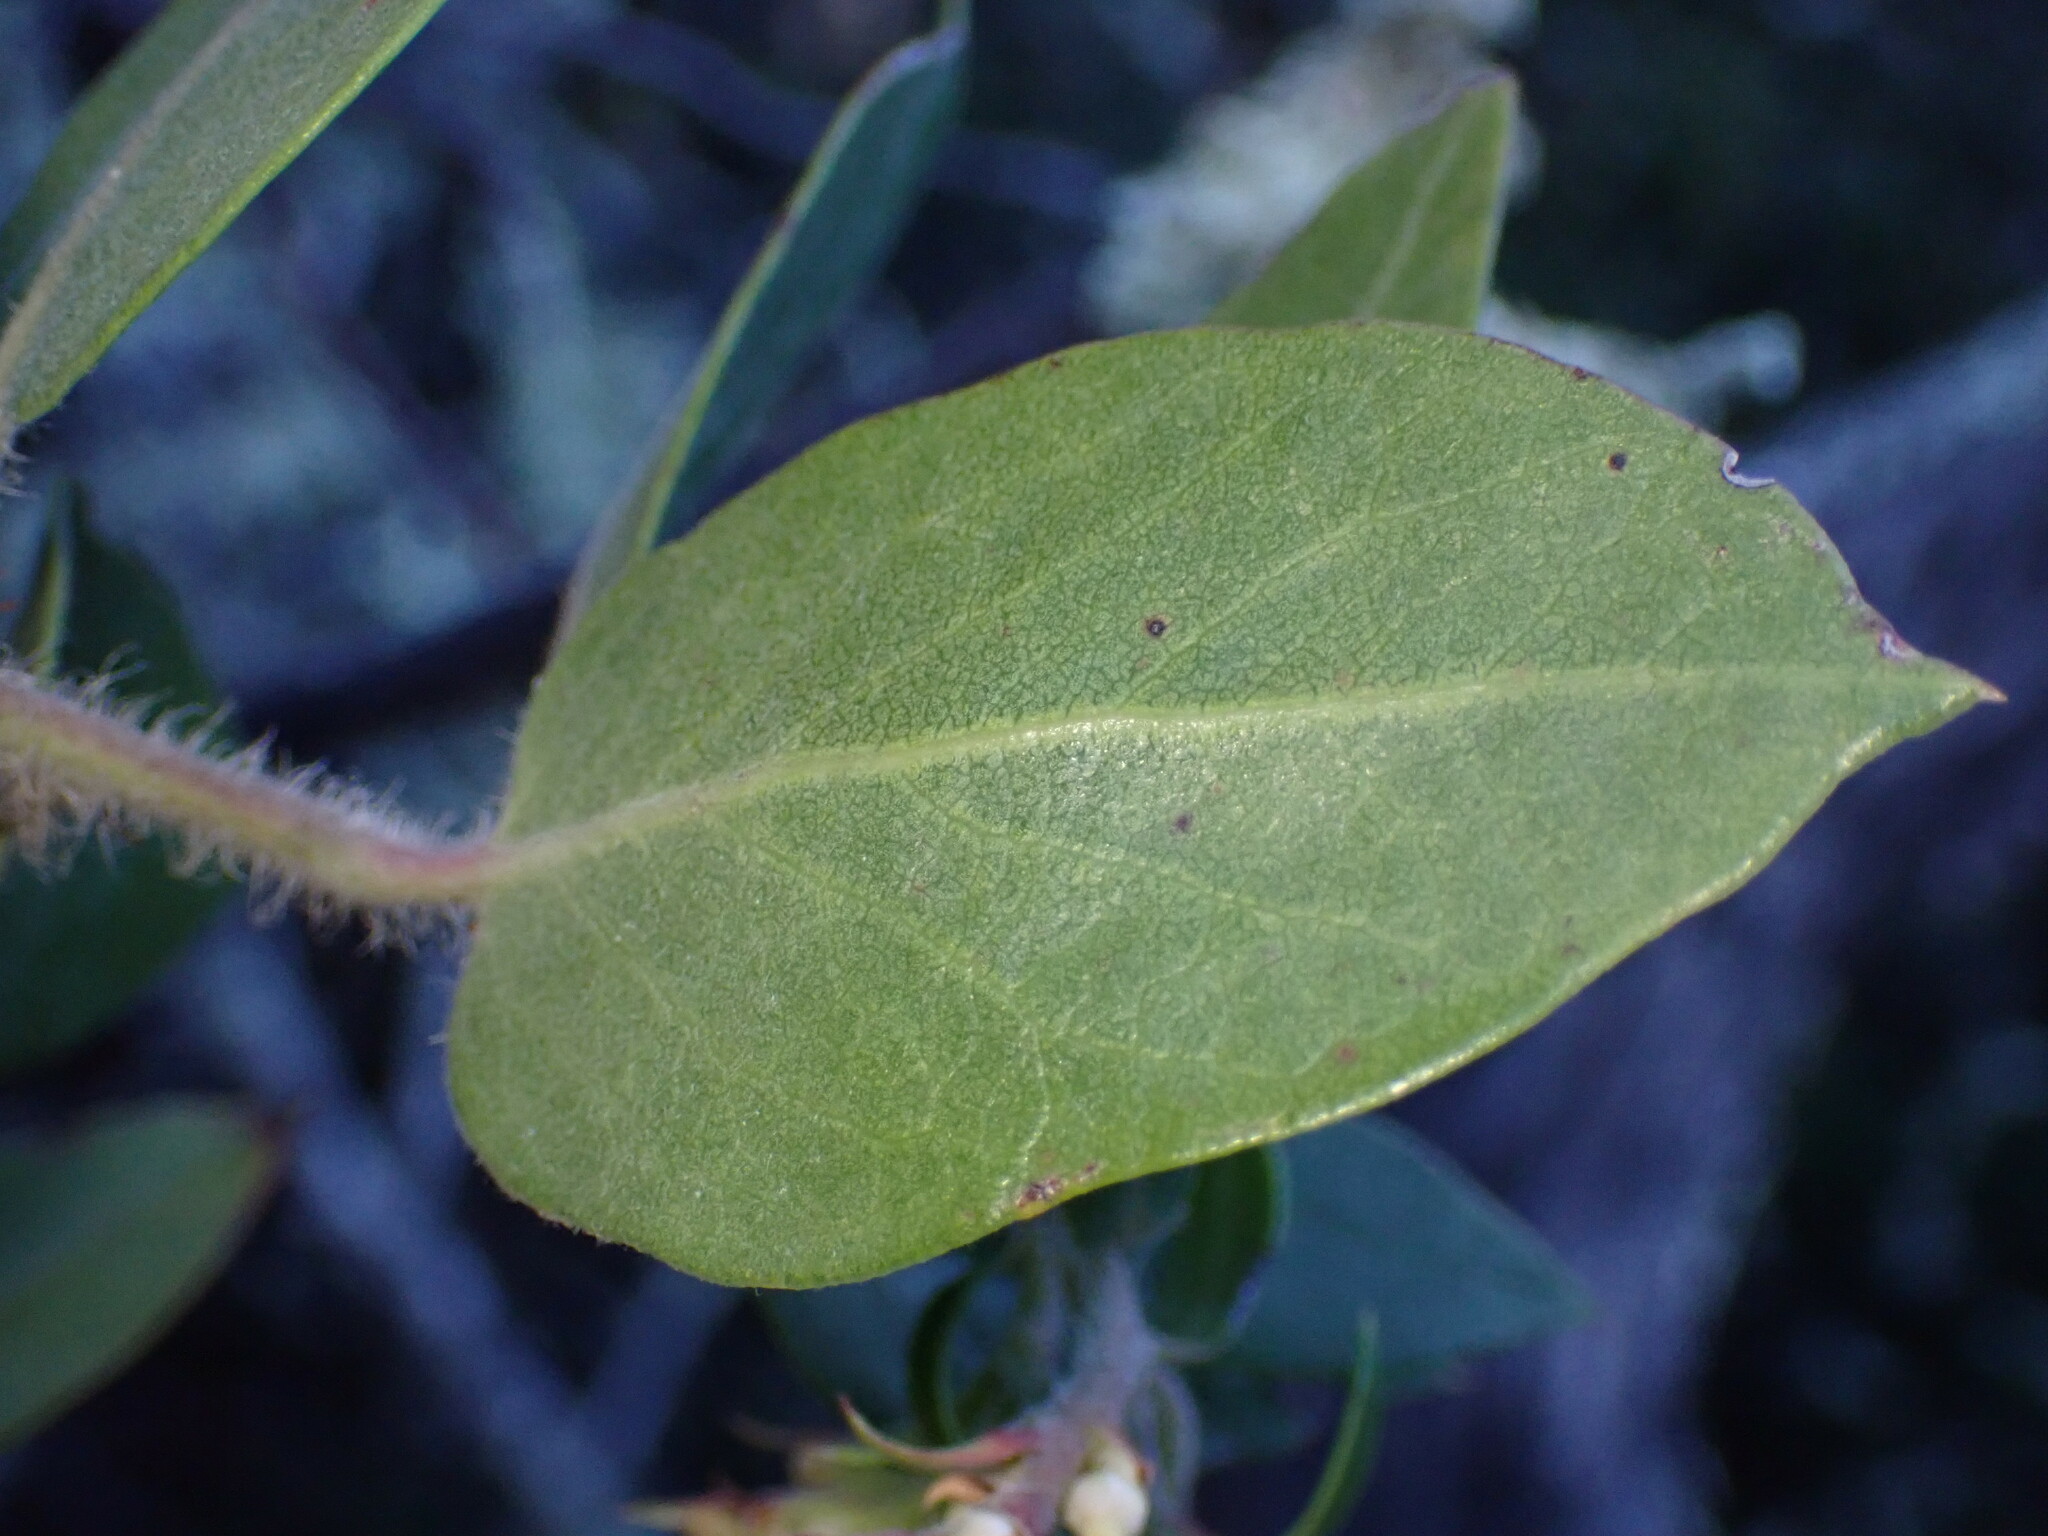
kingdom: Plantae
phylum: Tracheophyta
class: Magnoliopsida
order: Ericales
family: Ericaceae
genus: Arctostaphylos
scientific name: Arctostaphylos crustacea
